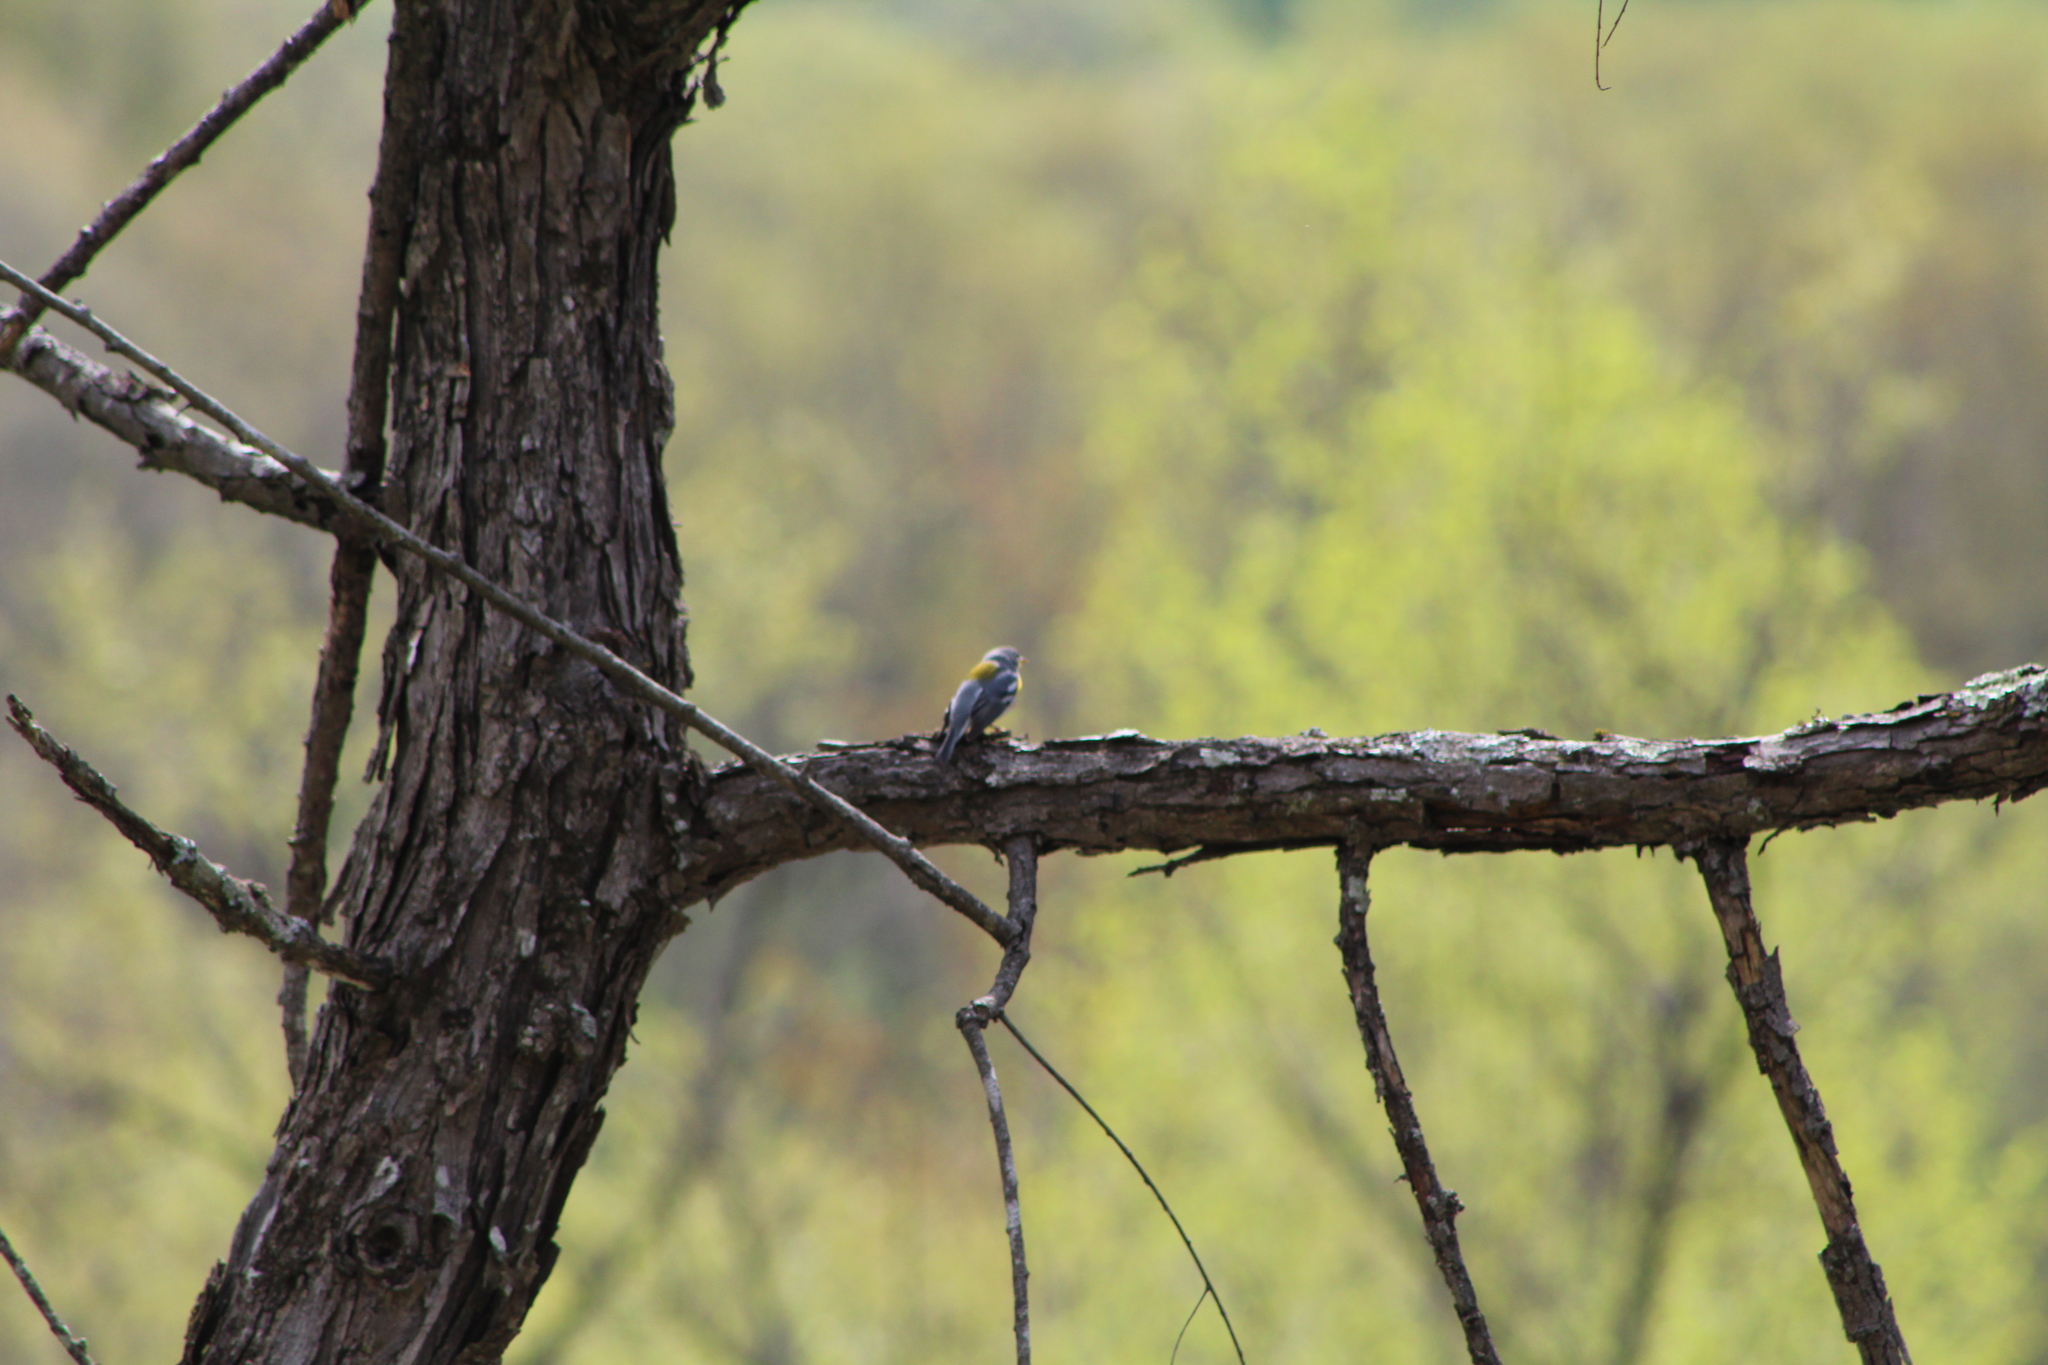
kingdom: Animalia
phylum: Chordata
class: Aves
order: Passeriformes
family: Parulidae
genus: Setophaga
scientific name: Setophaga americana
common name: Northern parula
